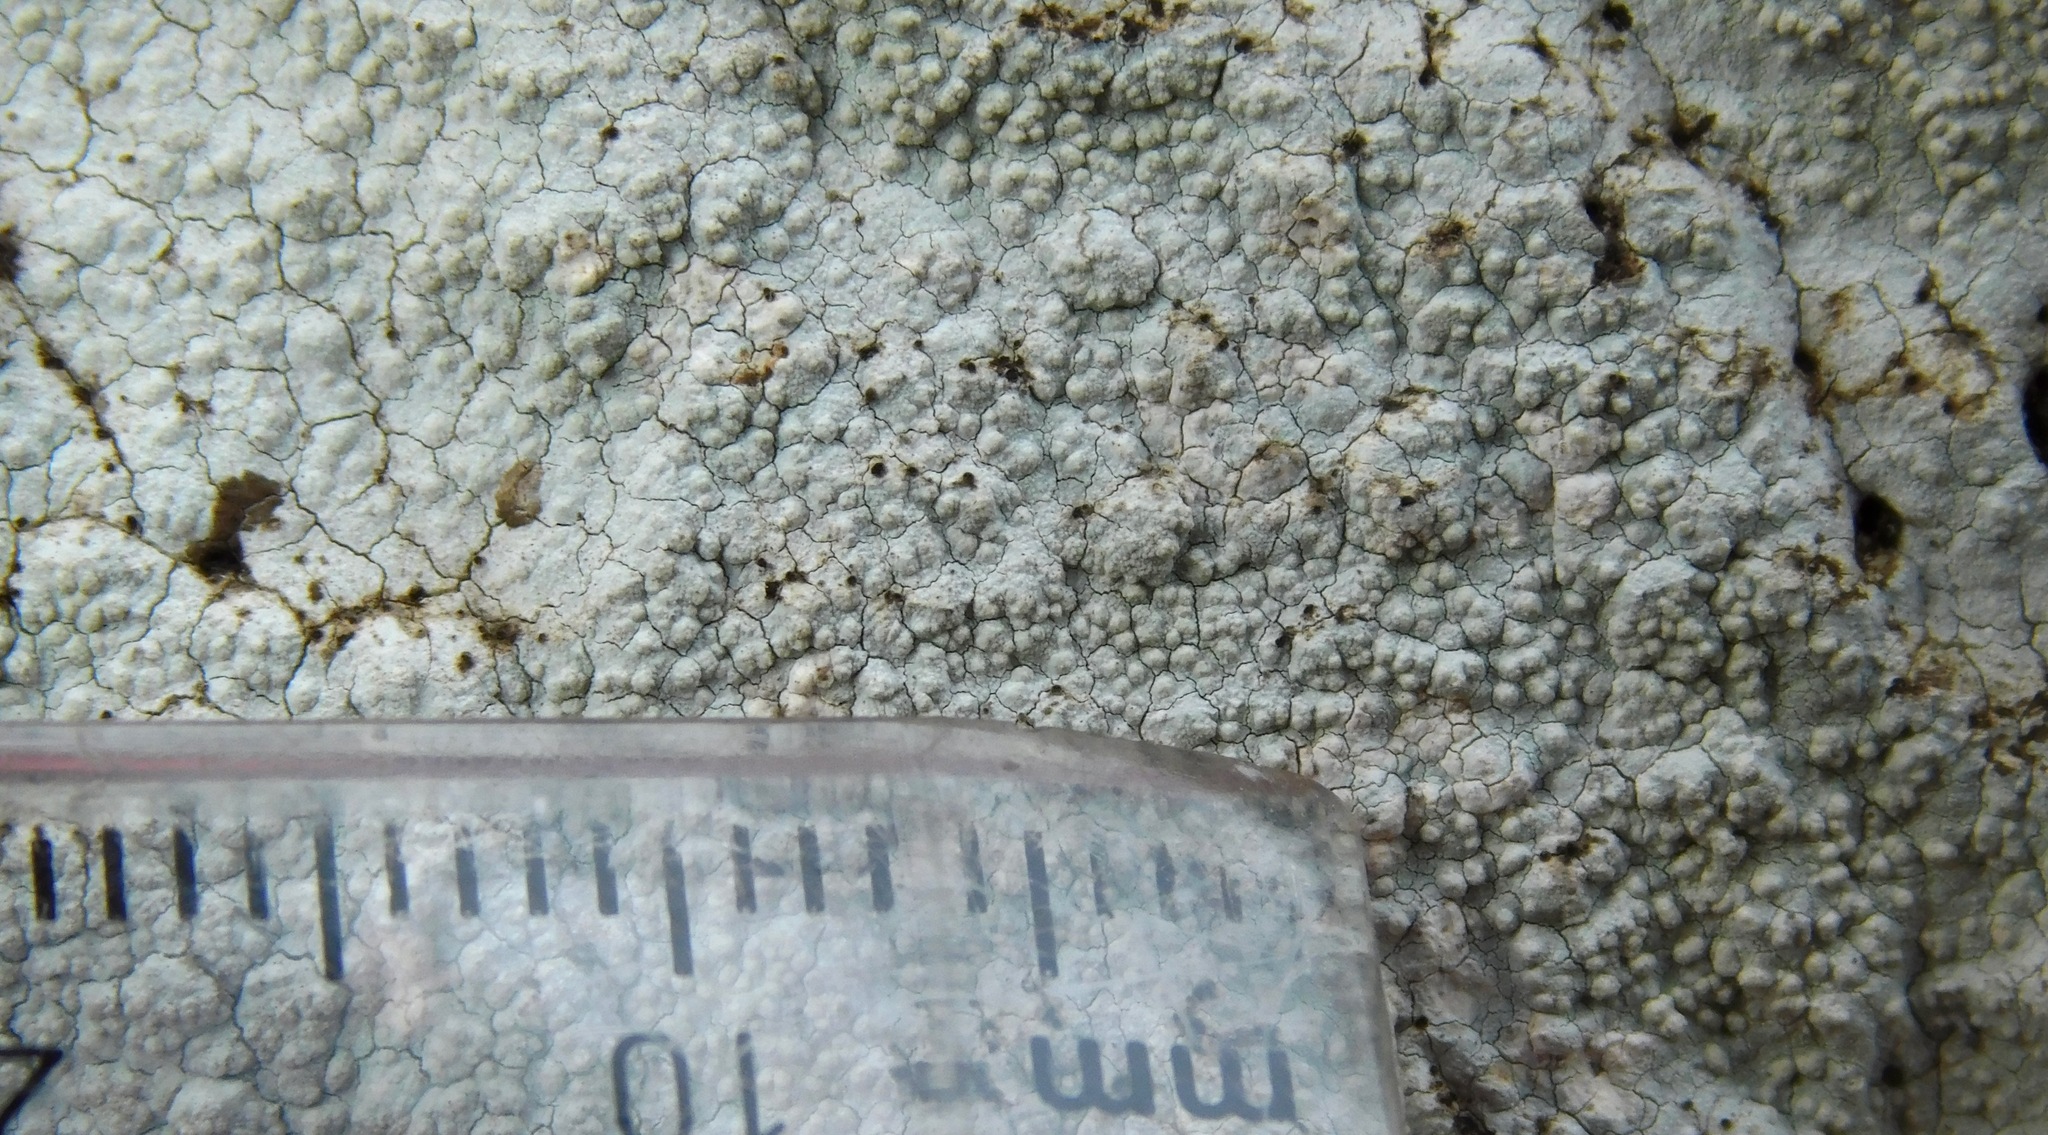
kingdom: Fungi
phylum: Ascomycota
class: Lecanoromycetes
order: Pertusariales
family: Pertusariaceae
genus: Pertusaria
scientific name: Pertusaria plittiana
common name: Rock wart lichen
